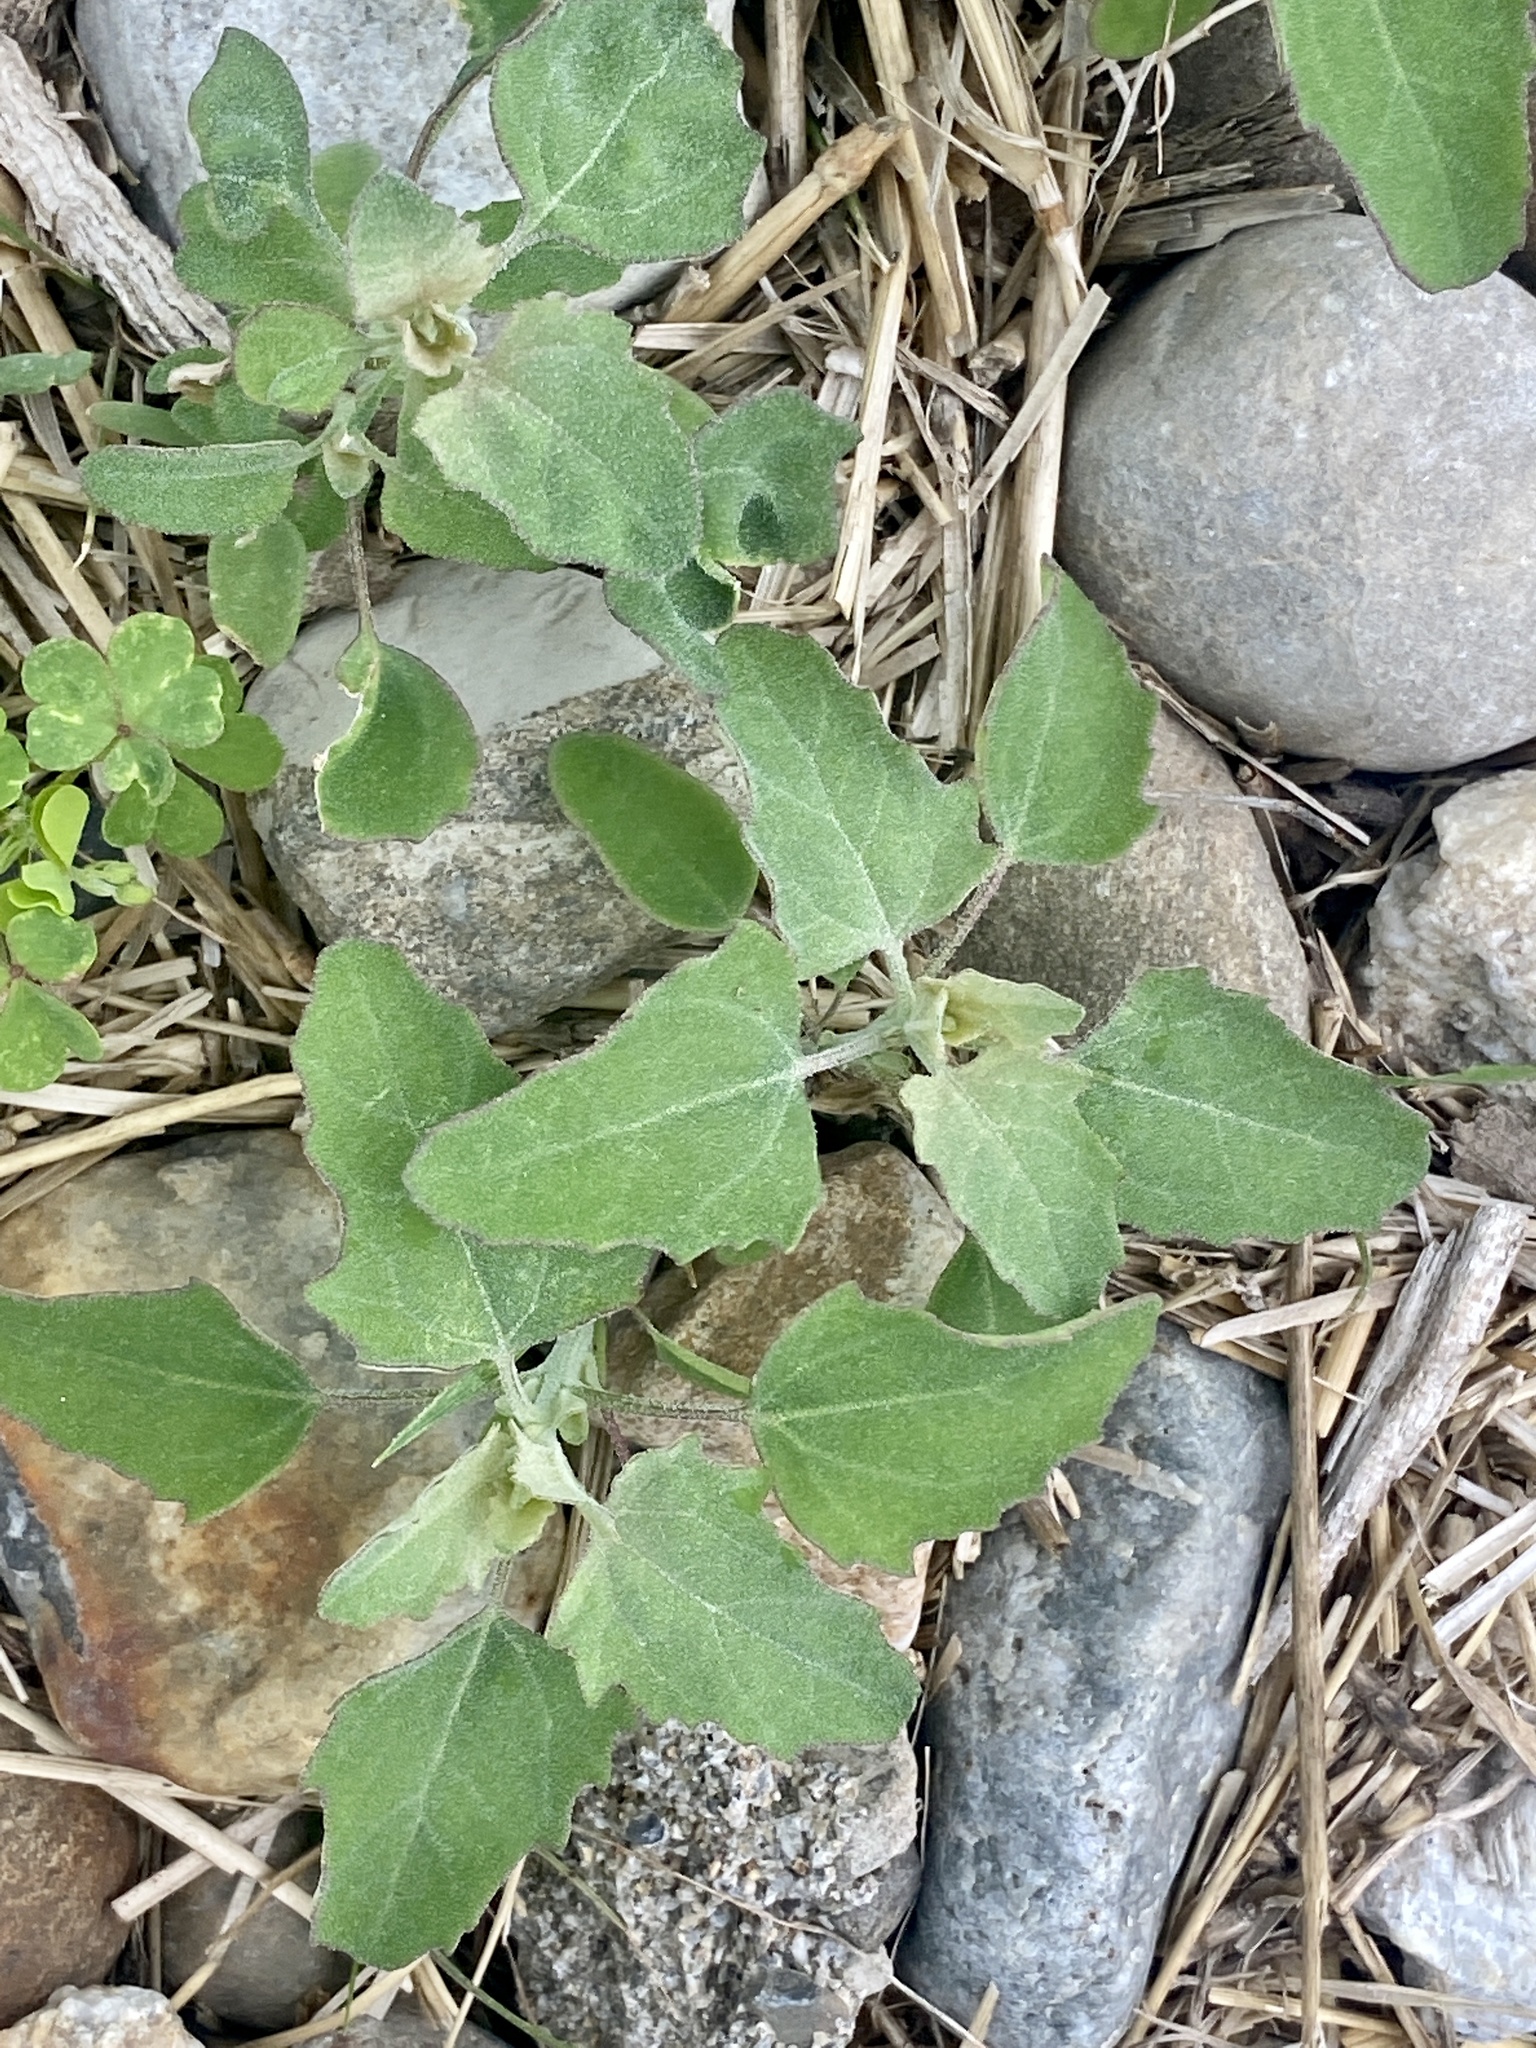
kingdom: Plantae
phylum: Tracheophyta
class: Magnoliopsida
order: Caryophyllales
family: Amaranthaceae
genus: Chenopodium
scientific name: Chenopodium album
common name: Fat-hen
